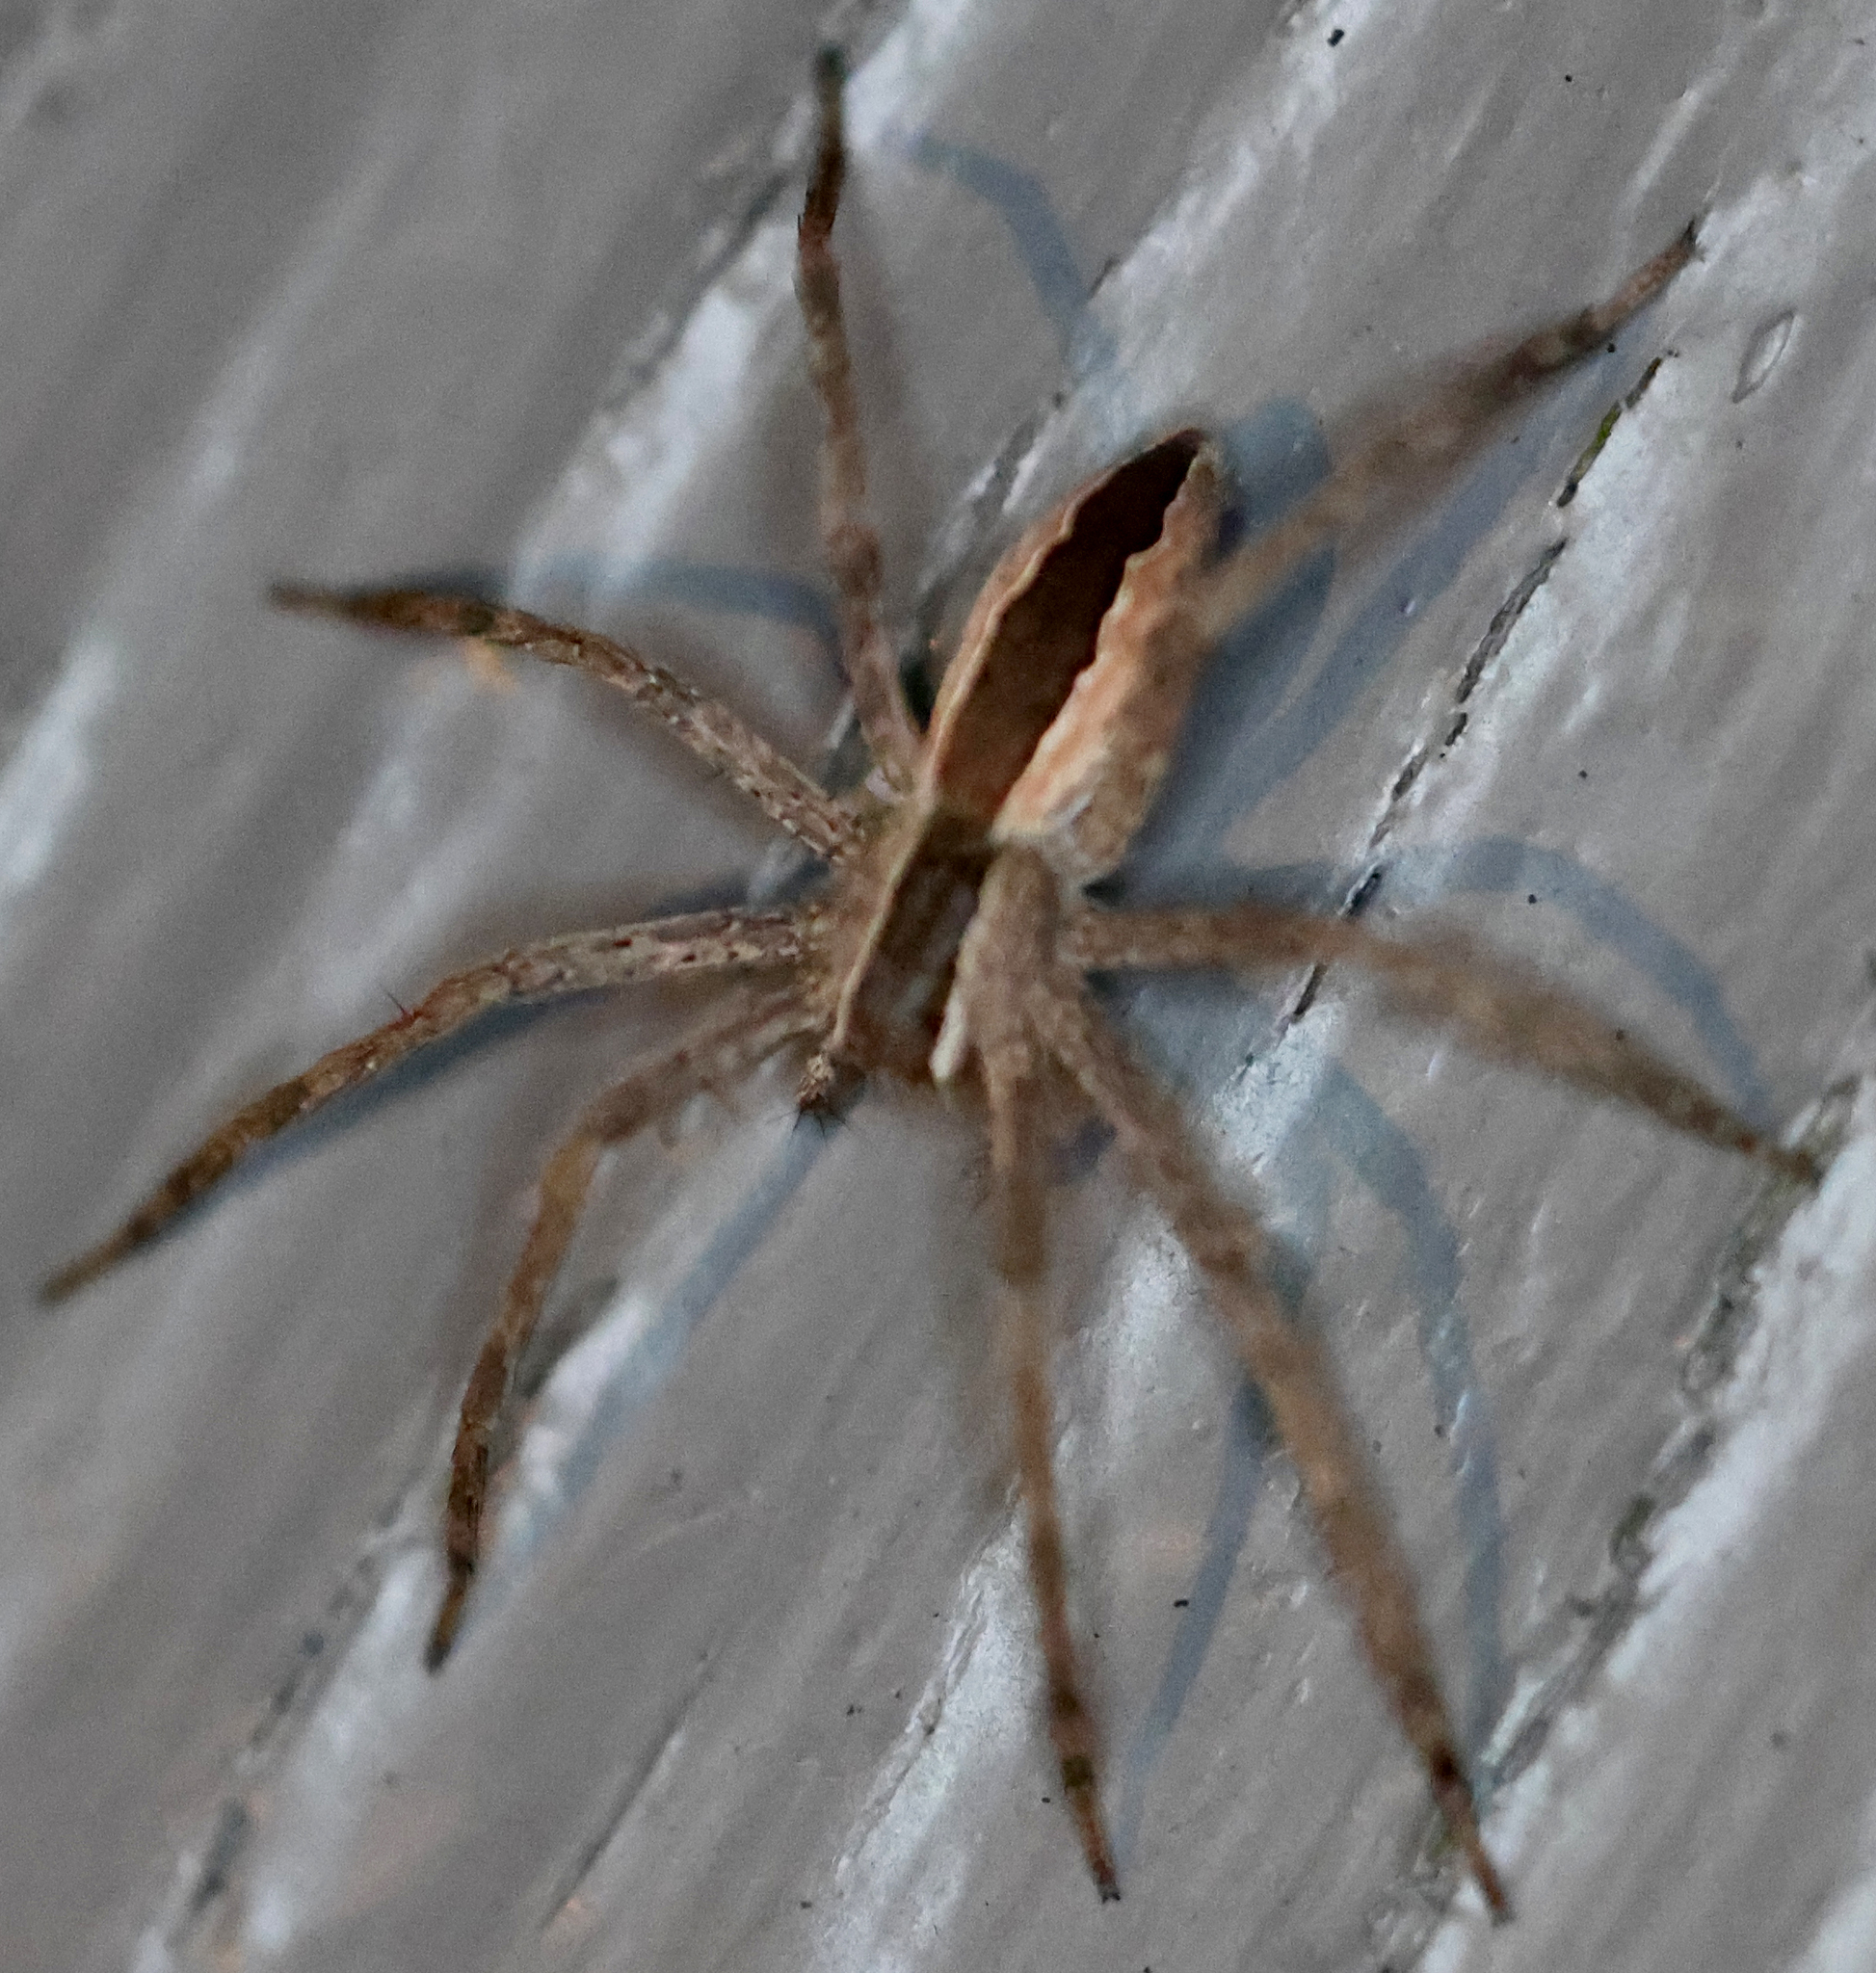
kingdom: Animalia
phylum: Arthropoda
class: Arachnida
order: Araneae
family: Pisauridae
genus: Pisaurina
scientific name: Pisaurina mira
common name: American nursery web spider
